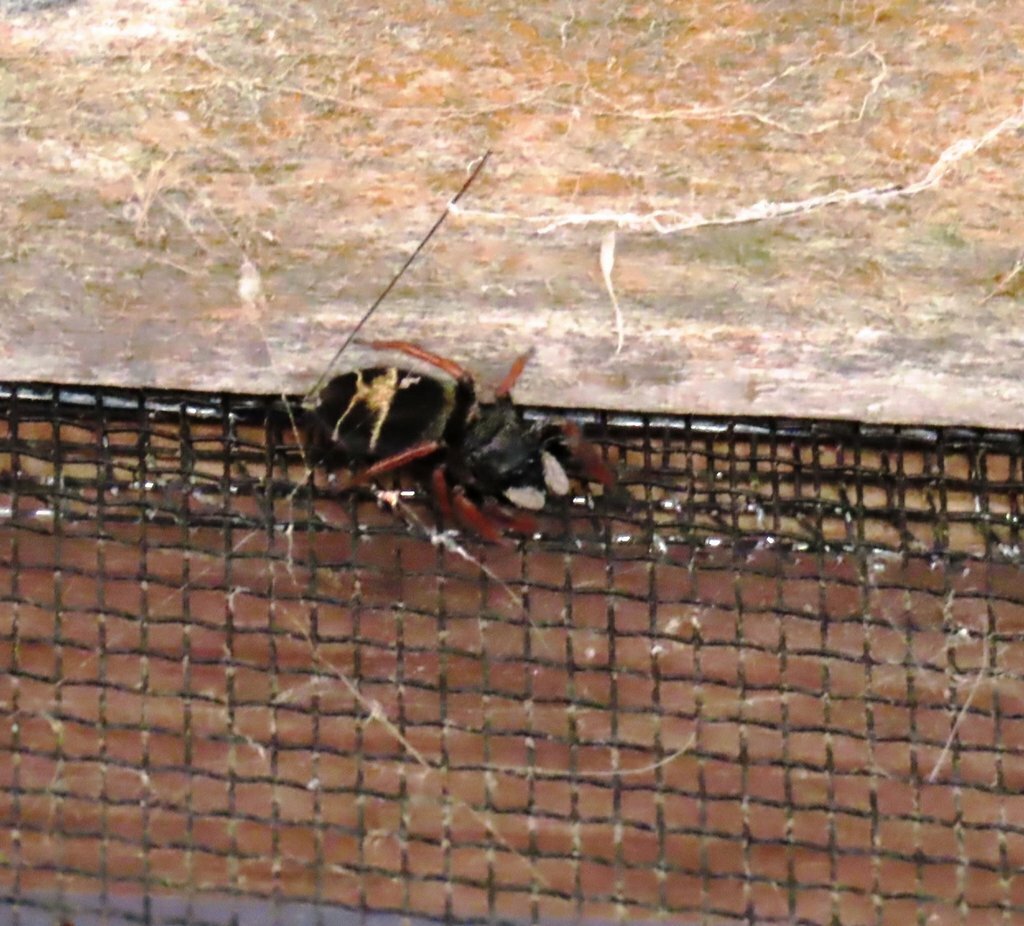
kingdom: Animalia
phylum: Arthropoda
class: Arachnida
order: Araneae
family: Salticidae
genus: Apricia
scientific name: Apricia jovialis
